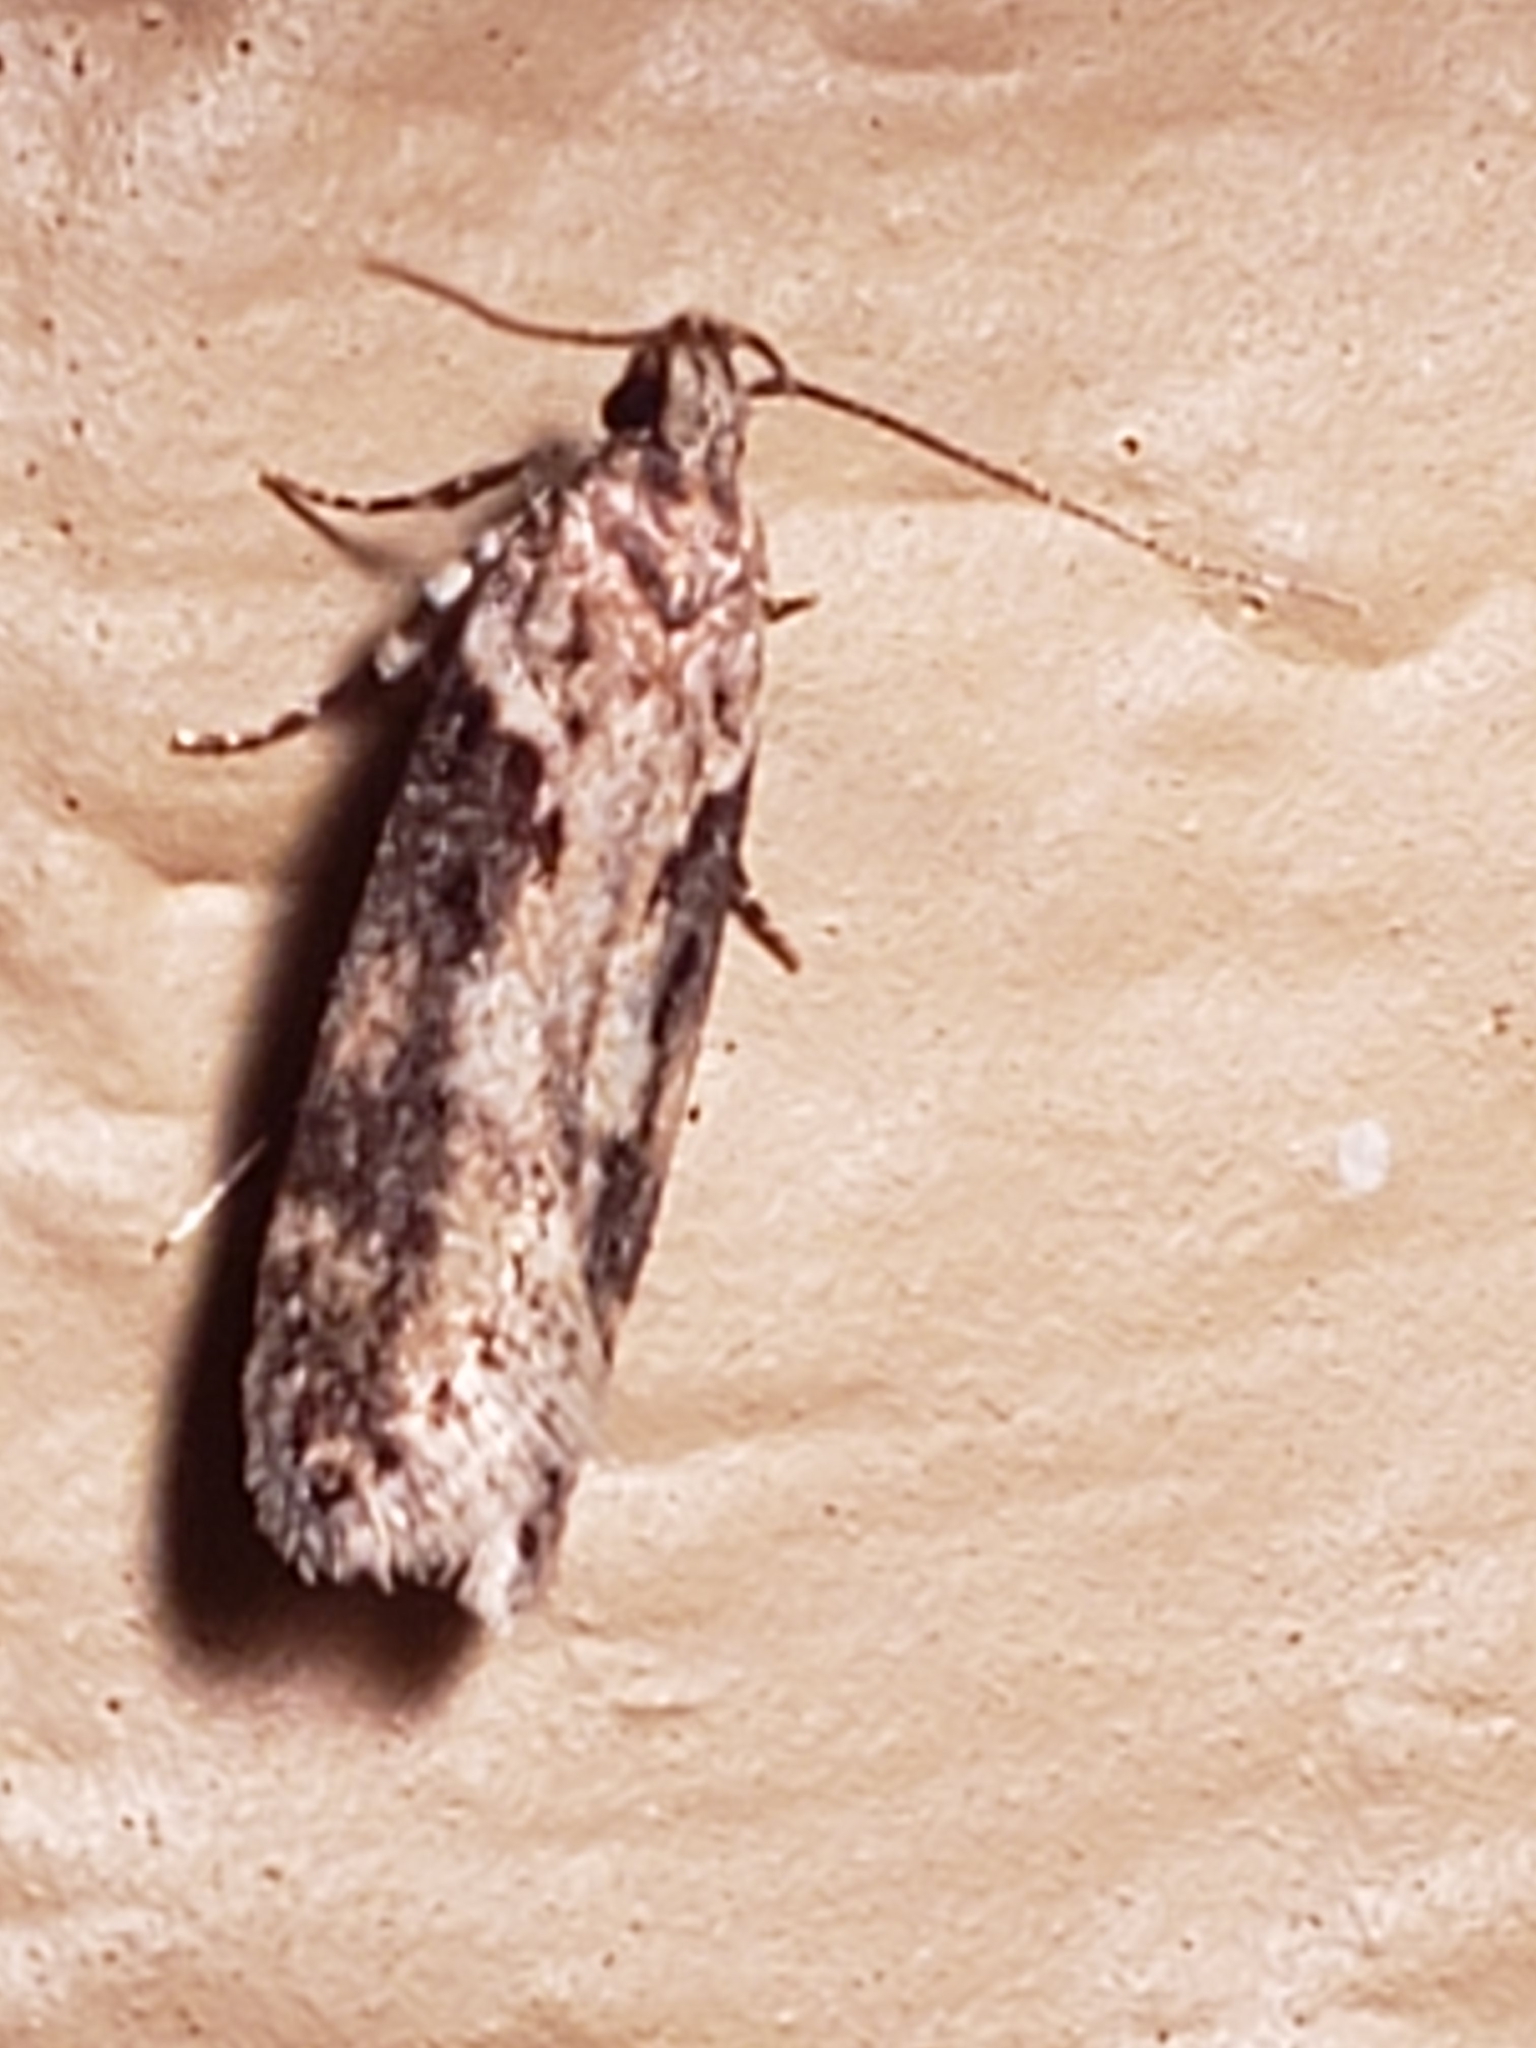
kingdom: Animalia
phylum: Arthropoda
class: Insecta
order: Lepidoptera
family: Gelechiidae
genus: Chionodes
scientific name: Chionodes mediofuscella
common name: Black-smudged chionodes moth
